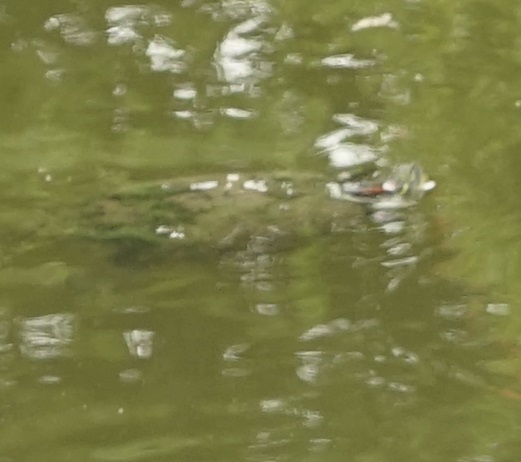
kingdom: Animalia
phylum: Chordata
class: Testudines
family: Emydidae
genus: Trachemys
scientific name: Trachemys scripta
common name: Slider
